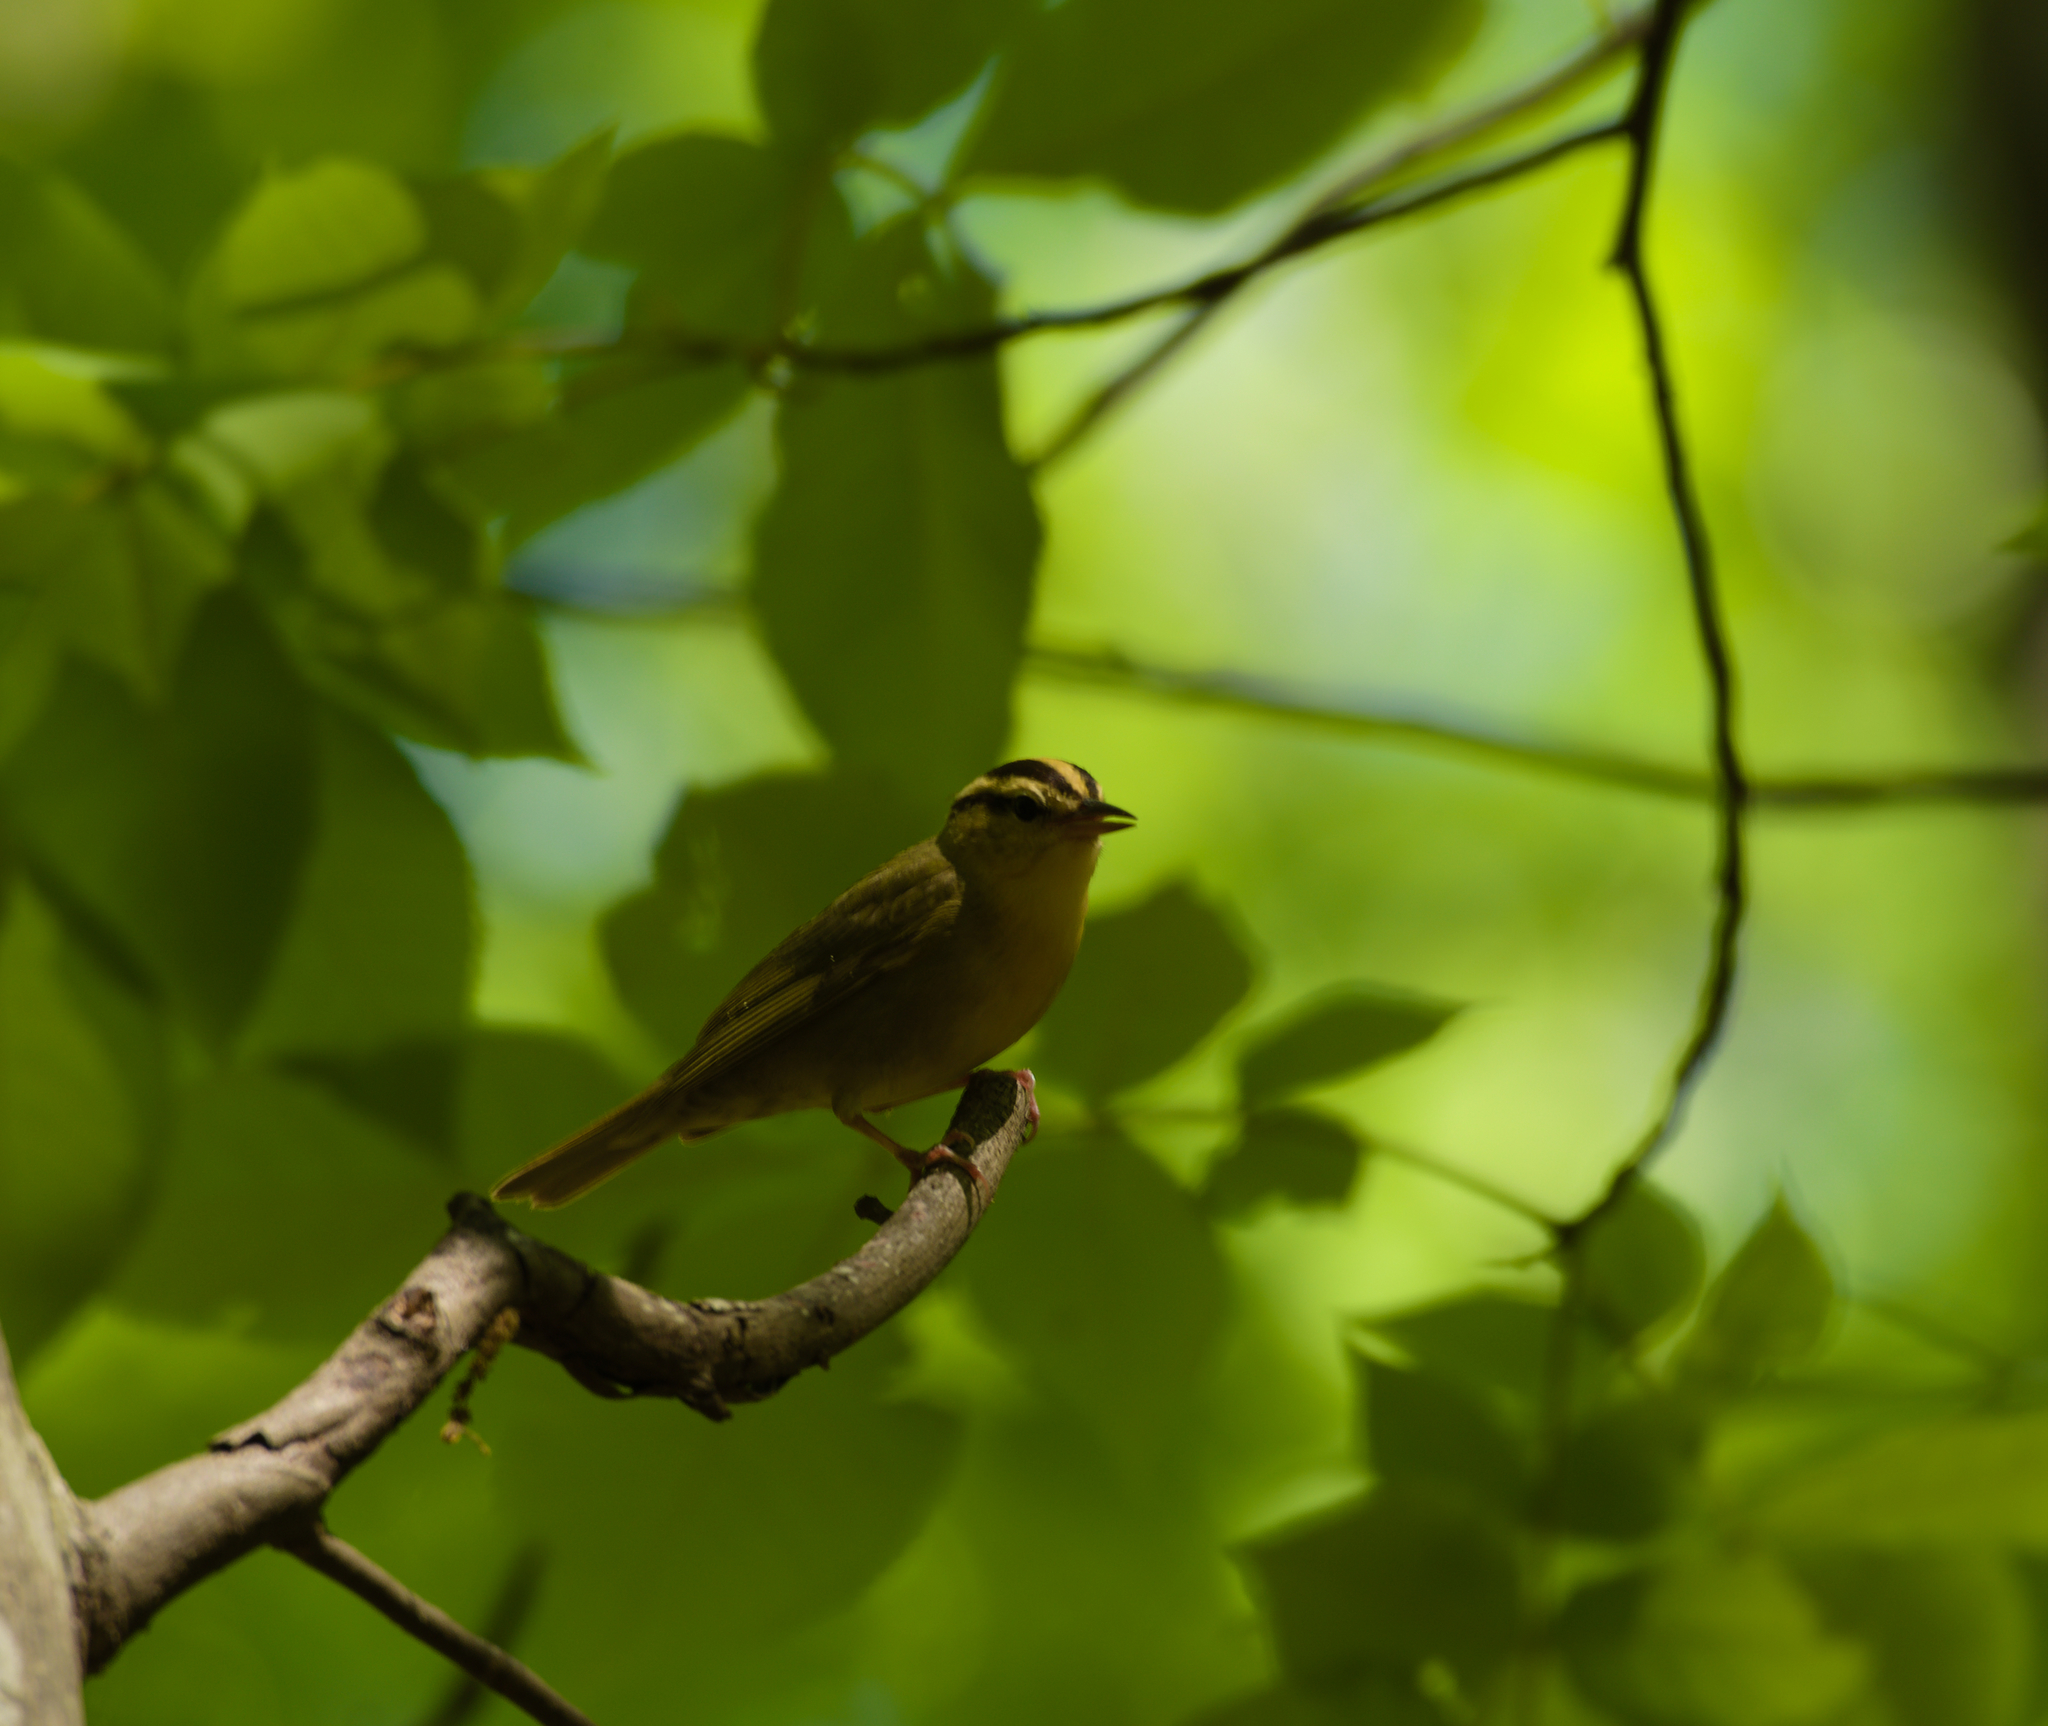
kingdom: Animalia
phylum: Chordata
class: Aves
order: Passeriformes
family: Parulidae
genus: Helmitheros
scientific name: Helmitheros vermivorum
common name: Worm-eating warbler
